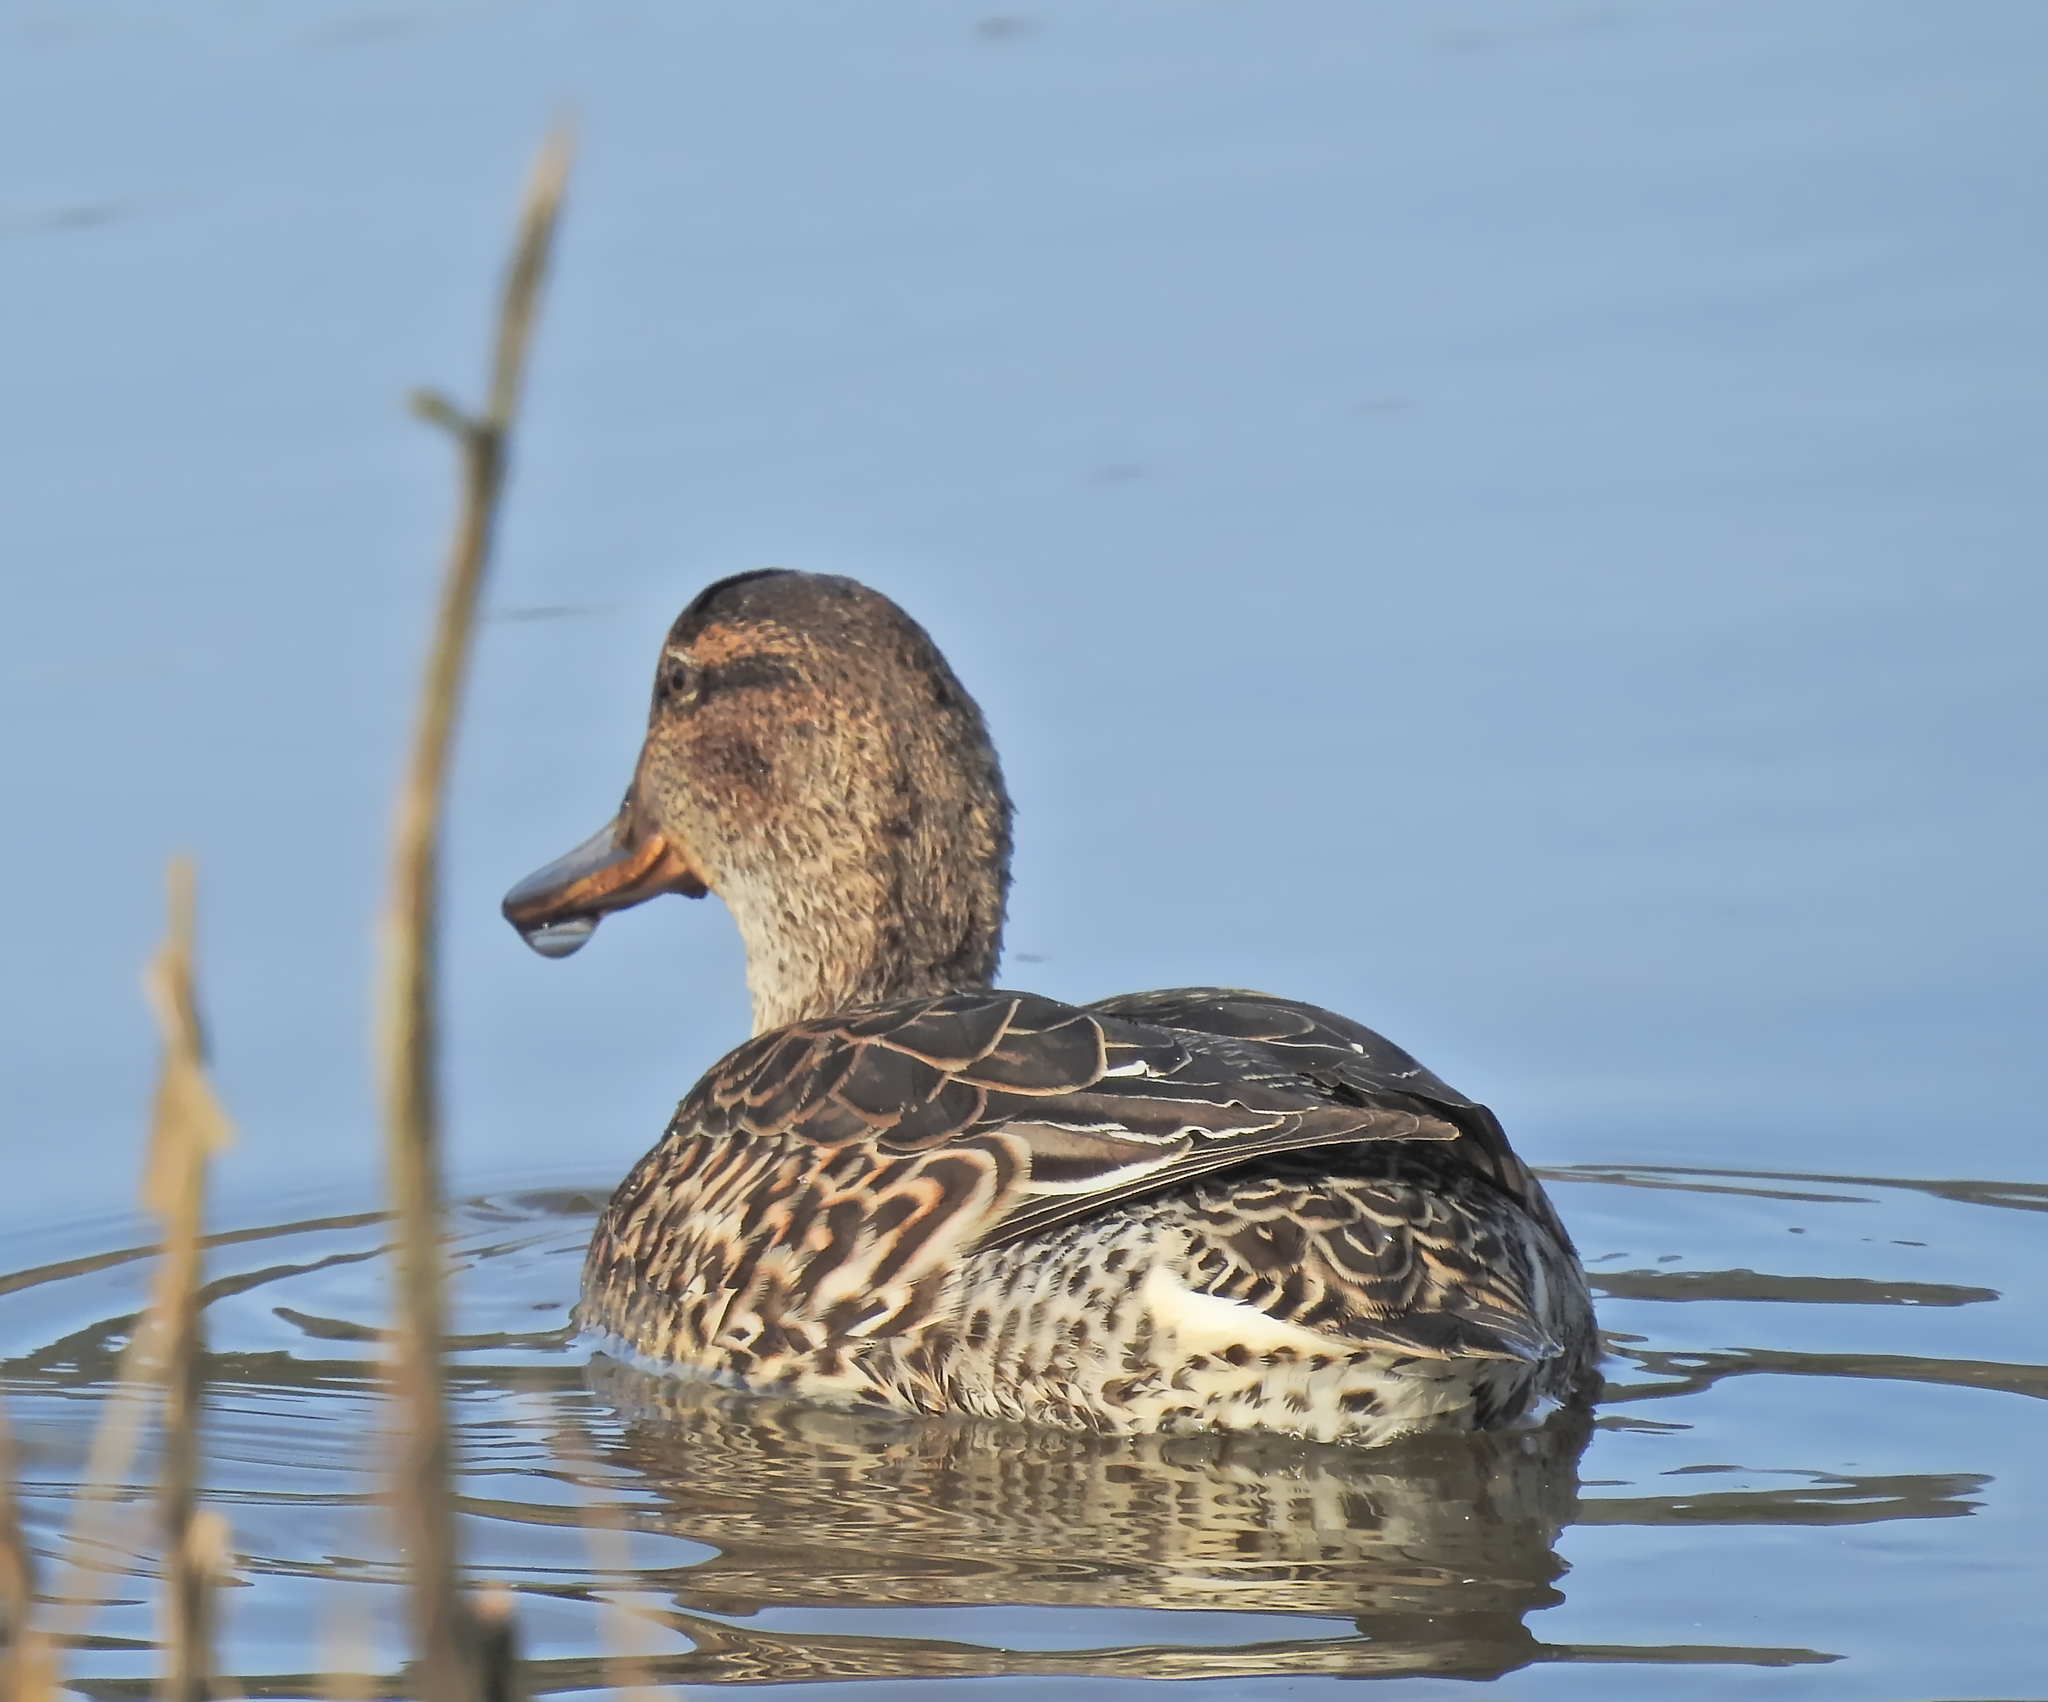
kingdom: Animalia
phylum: Chordata
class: Aves
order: Anseriformes
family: Anatidae
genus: Anas
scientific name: Anas crecca
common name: Eurasian teal
